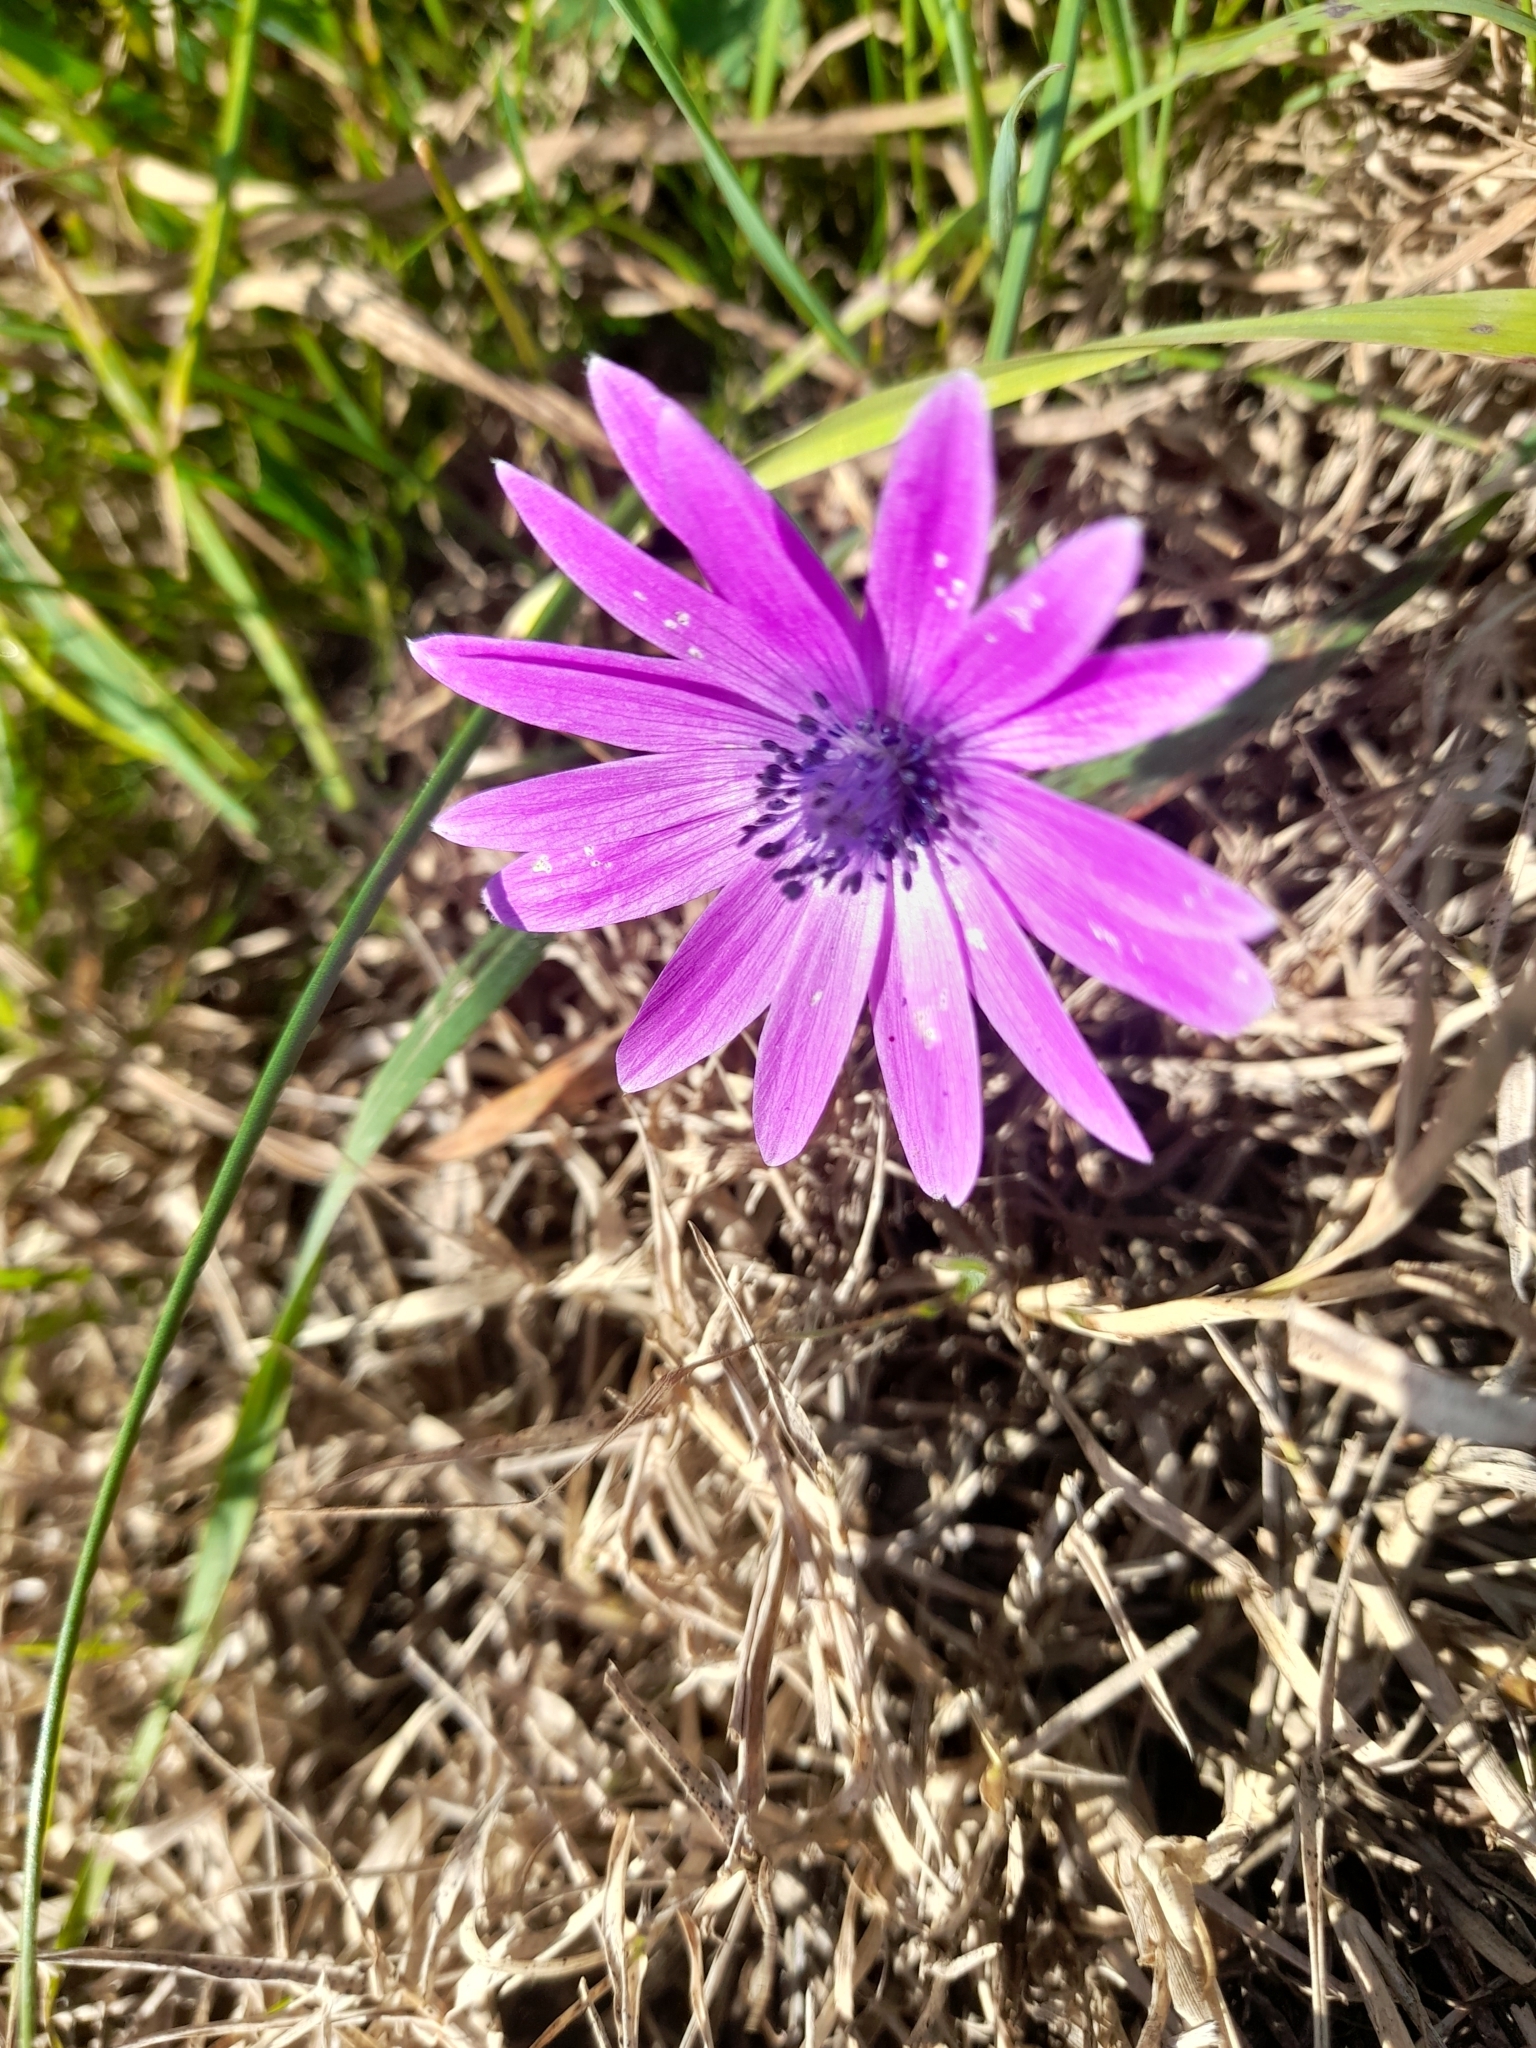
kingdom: Plantae
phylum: Tracheophyta
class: Magnoliopsida
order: Ranunculales
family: Ranunculaceae
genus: Anemone
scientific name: Anemone hortensis
